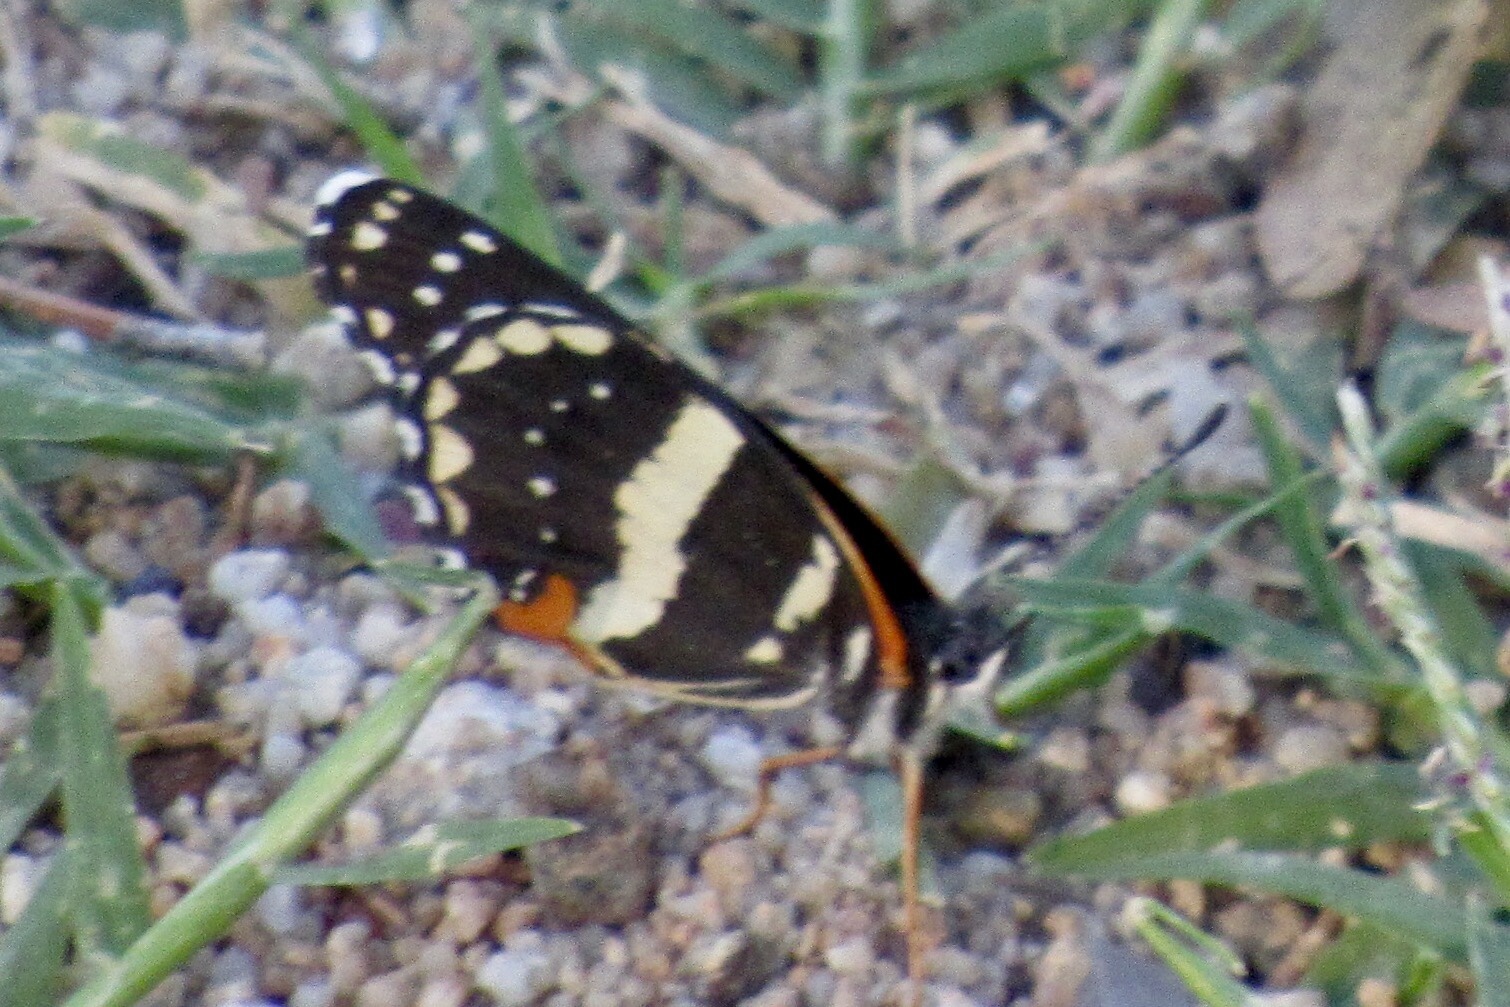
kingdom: Animalia
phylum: Arthropoda
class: Insecta
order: Lepidoptera
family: Nymphalidae
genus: Chlosyne
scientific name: Chlosyne lacinia
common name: Bordered patch
